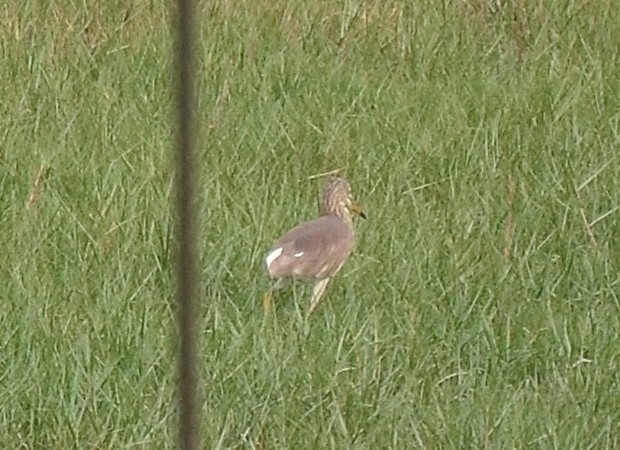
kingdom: Animalia
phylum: Chordata
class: Aves
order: Pelecaniformes
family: Ardeidae
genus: Ardeola
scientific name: Ardeola grayii
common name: Indian pond heron
